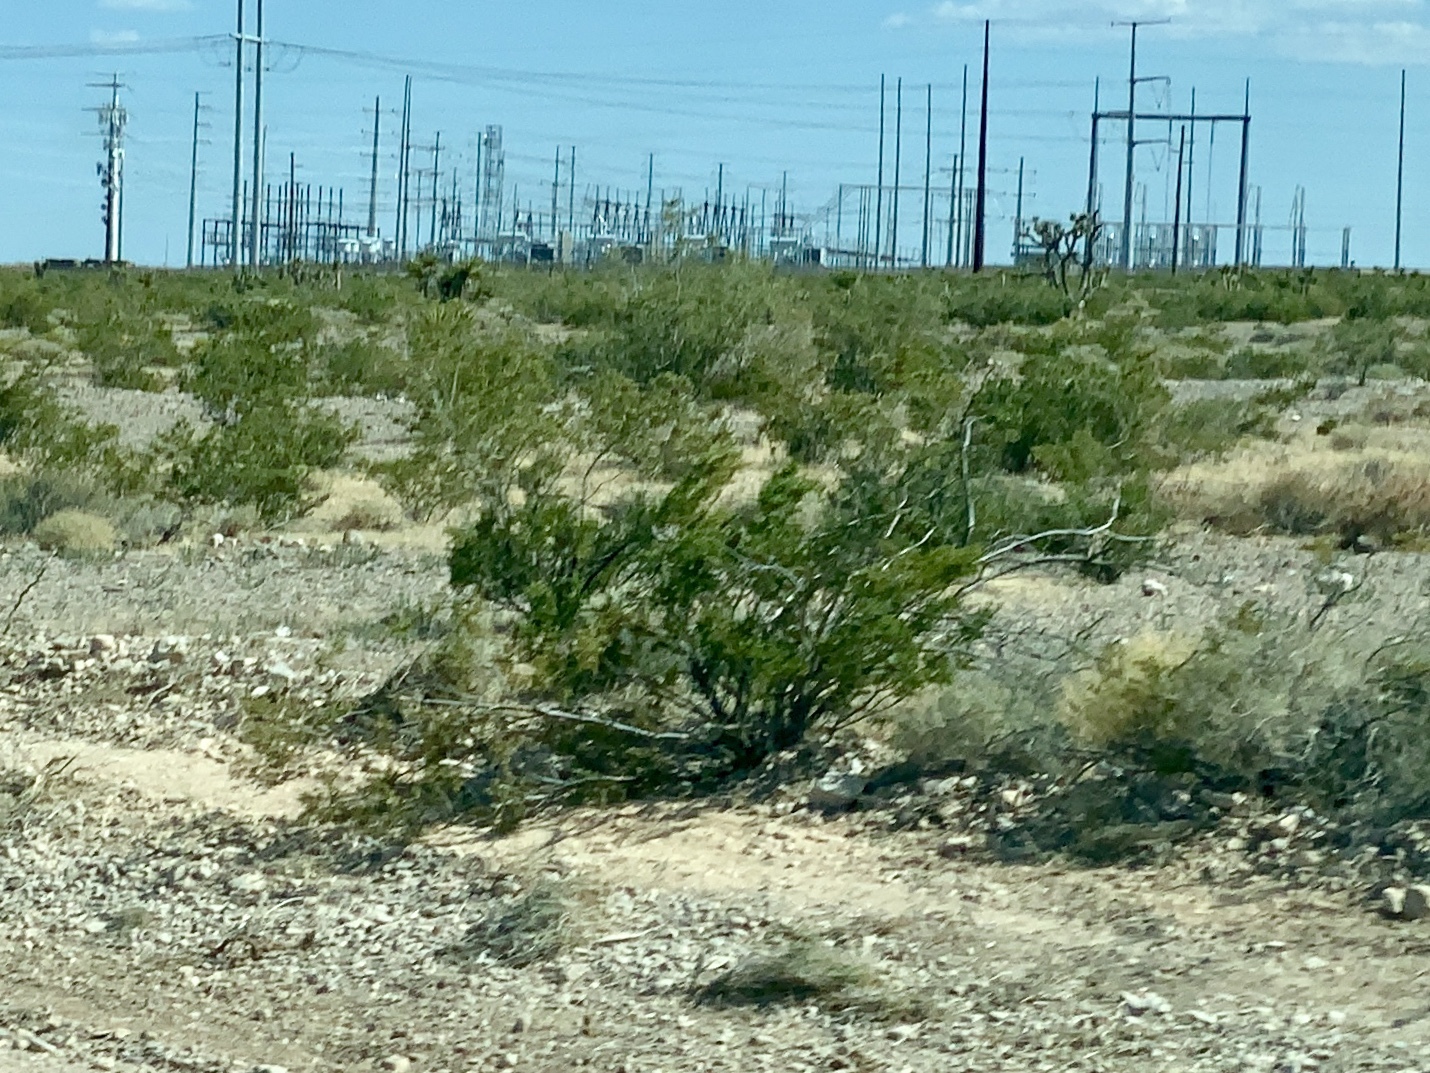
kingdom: Plantae
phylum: Tracheophyta
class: Magnoliopsida
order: Zygophyllales
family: Zygophyllaceae
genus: Larrea
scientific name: Larrea tridentata
